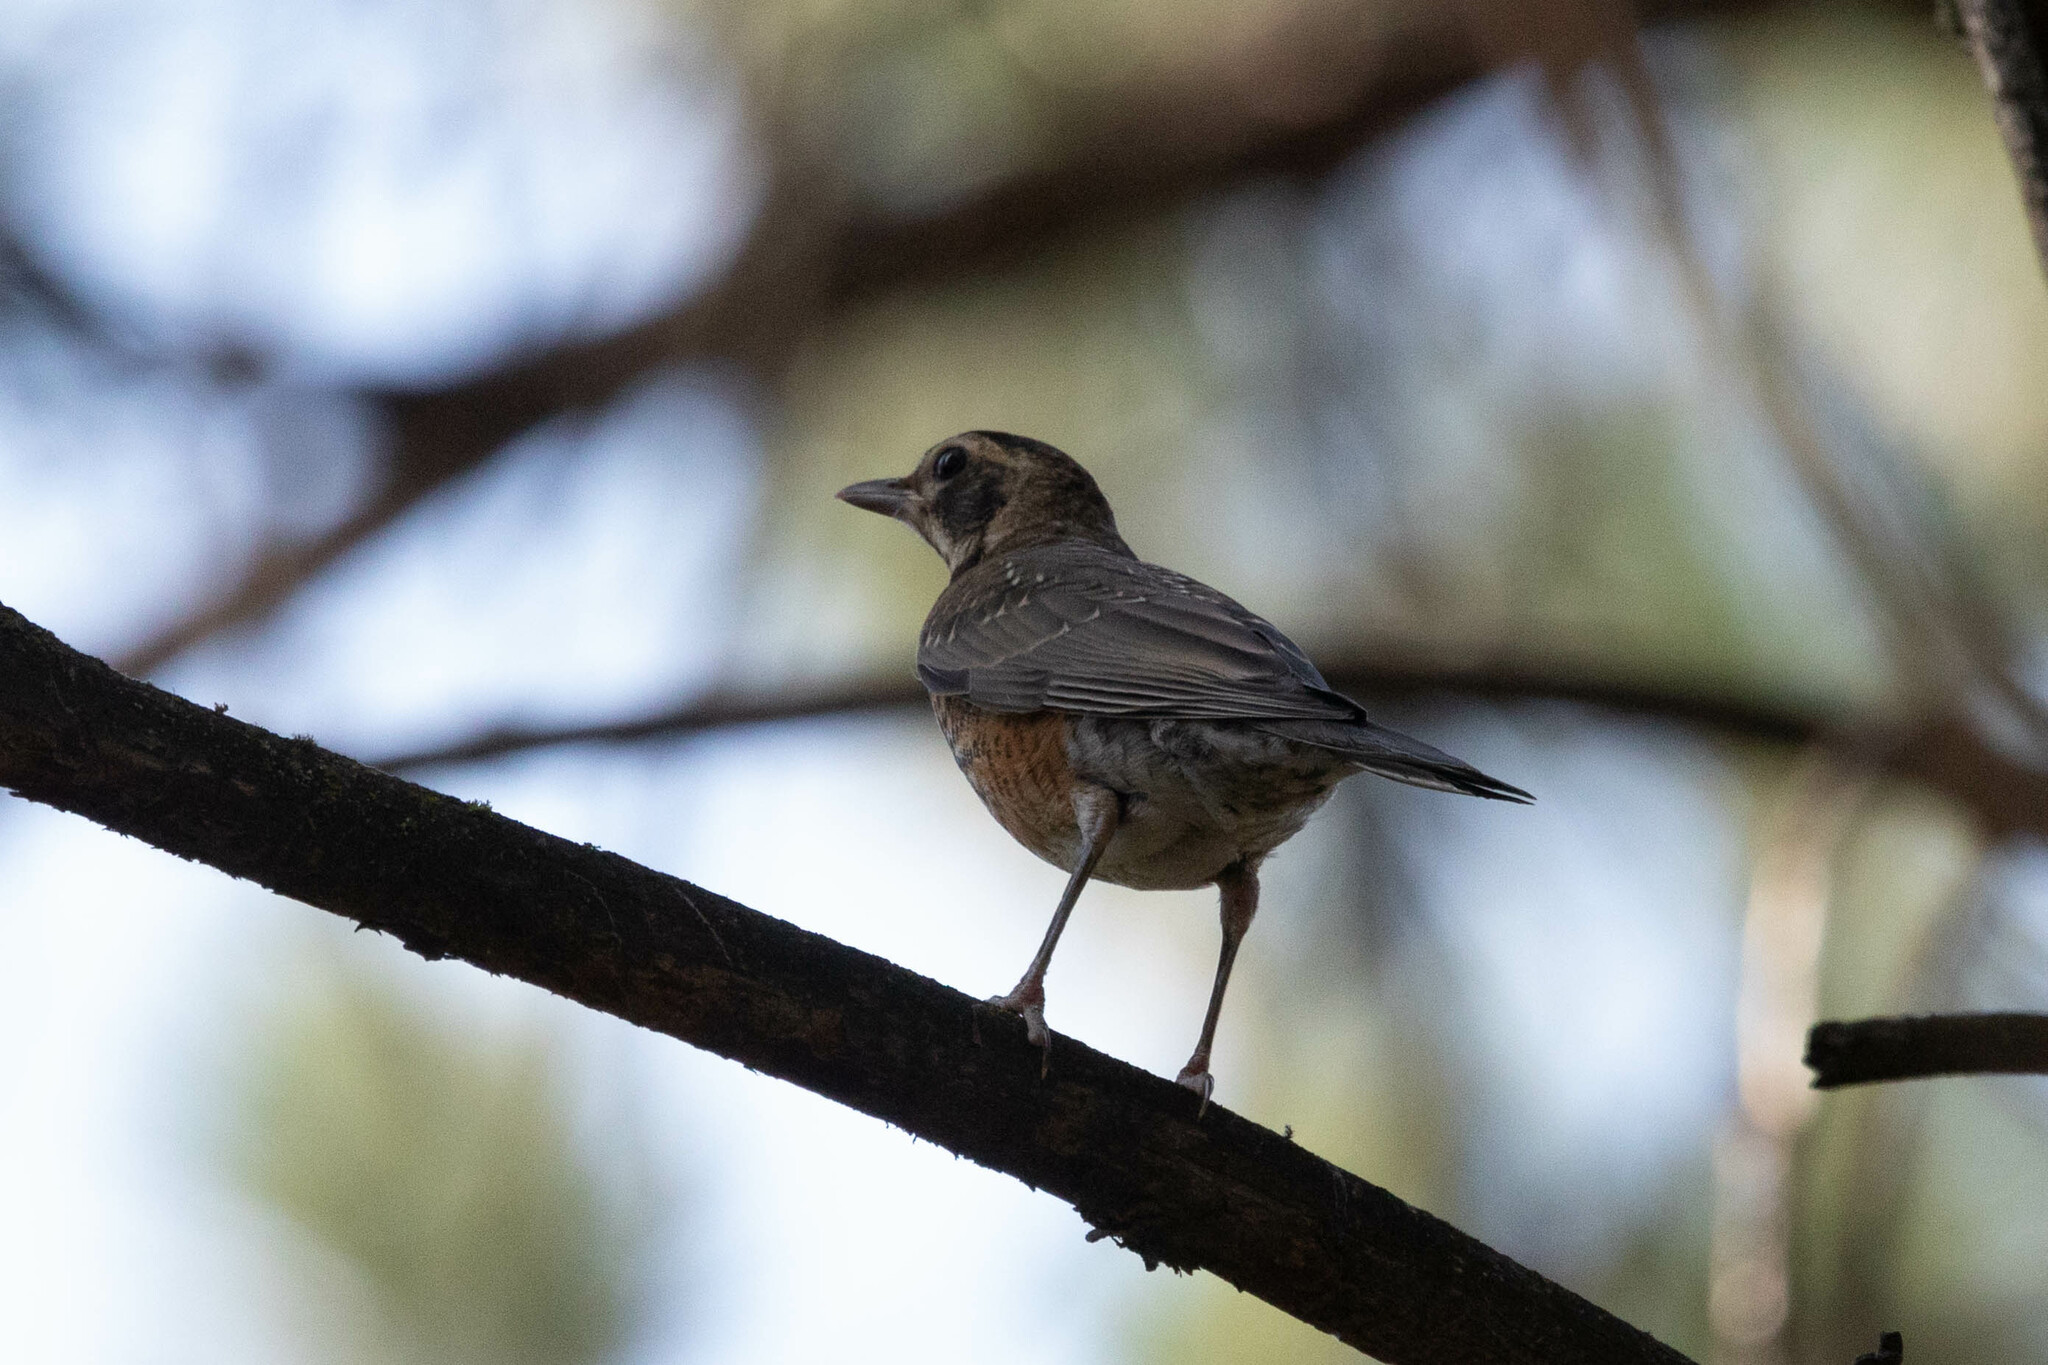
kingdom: Animalia
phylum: Chordata
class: Aves
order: Passeriformes
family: Turdidae
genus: Turdus
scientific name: Turdus migratorius
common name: American robin
